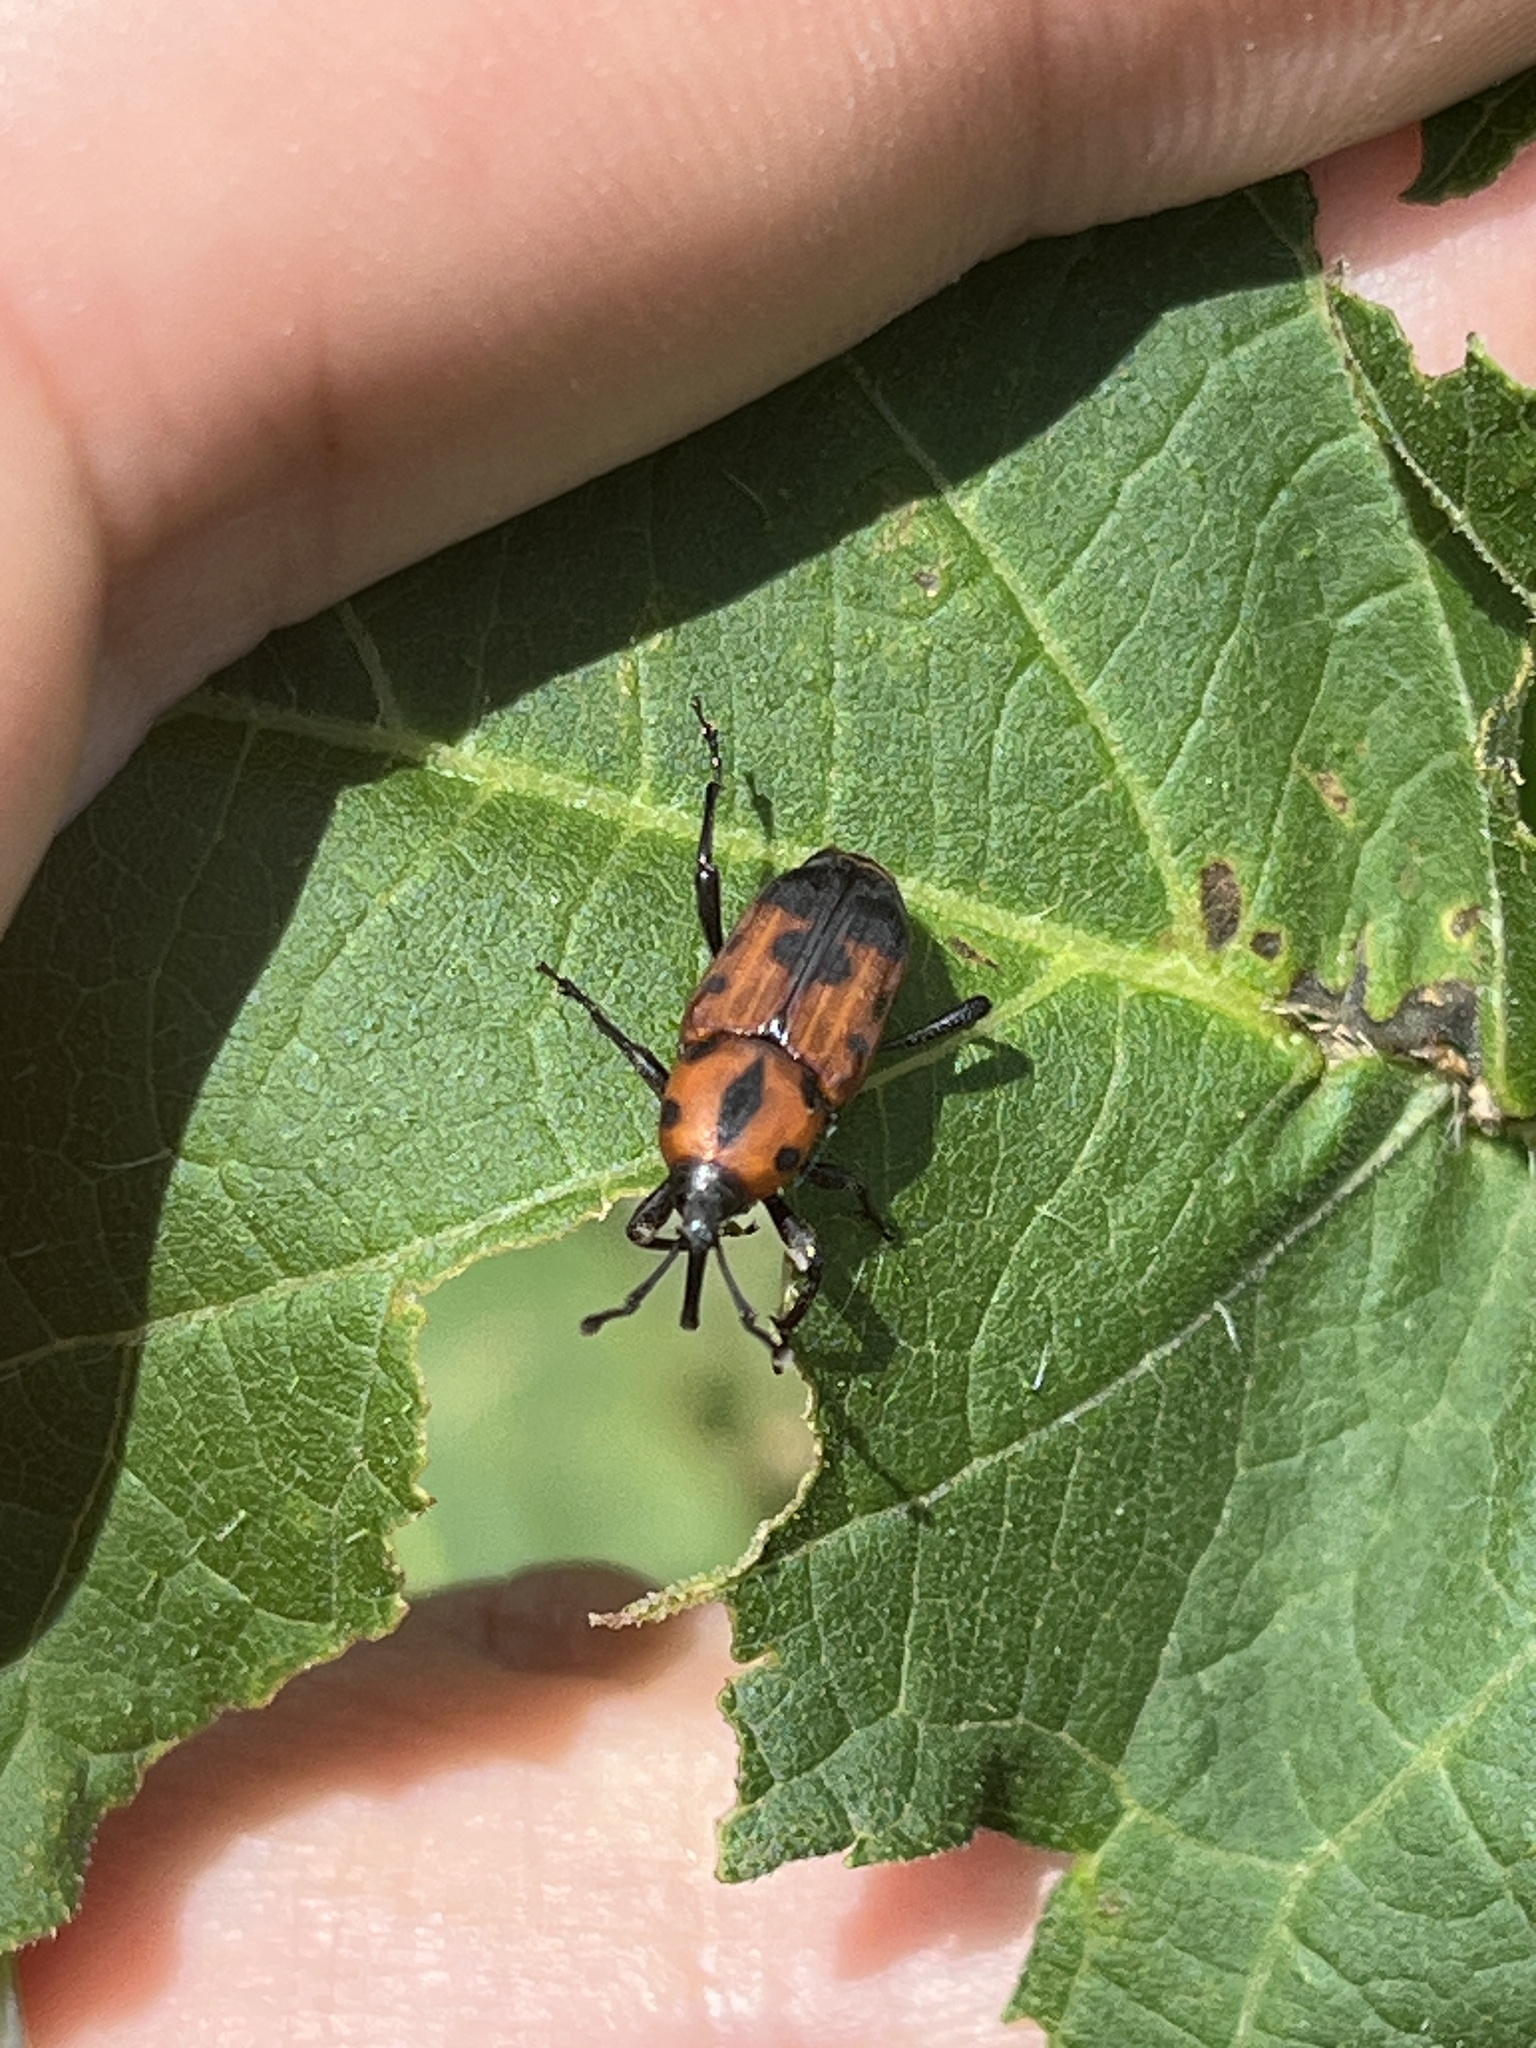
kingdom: Animalia
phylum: Arthropoda
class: Insecta
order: Coleoptera
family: Dryophthoridae
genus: Rhodobaenus
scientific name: Rhodobaenus quinquepunctatus
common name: Cocklebur weevil
